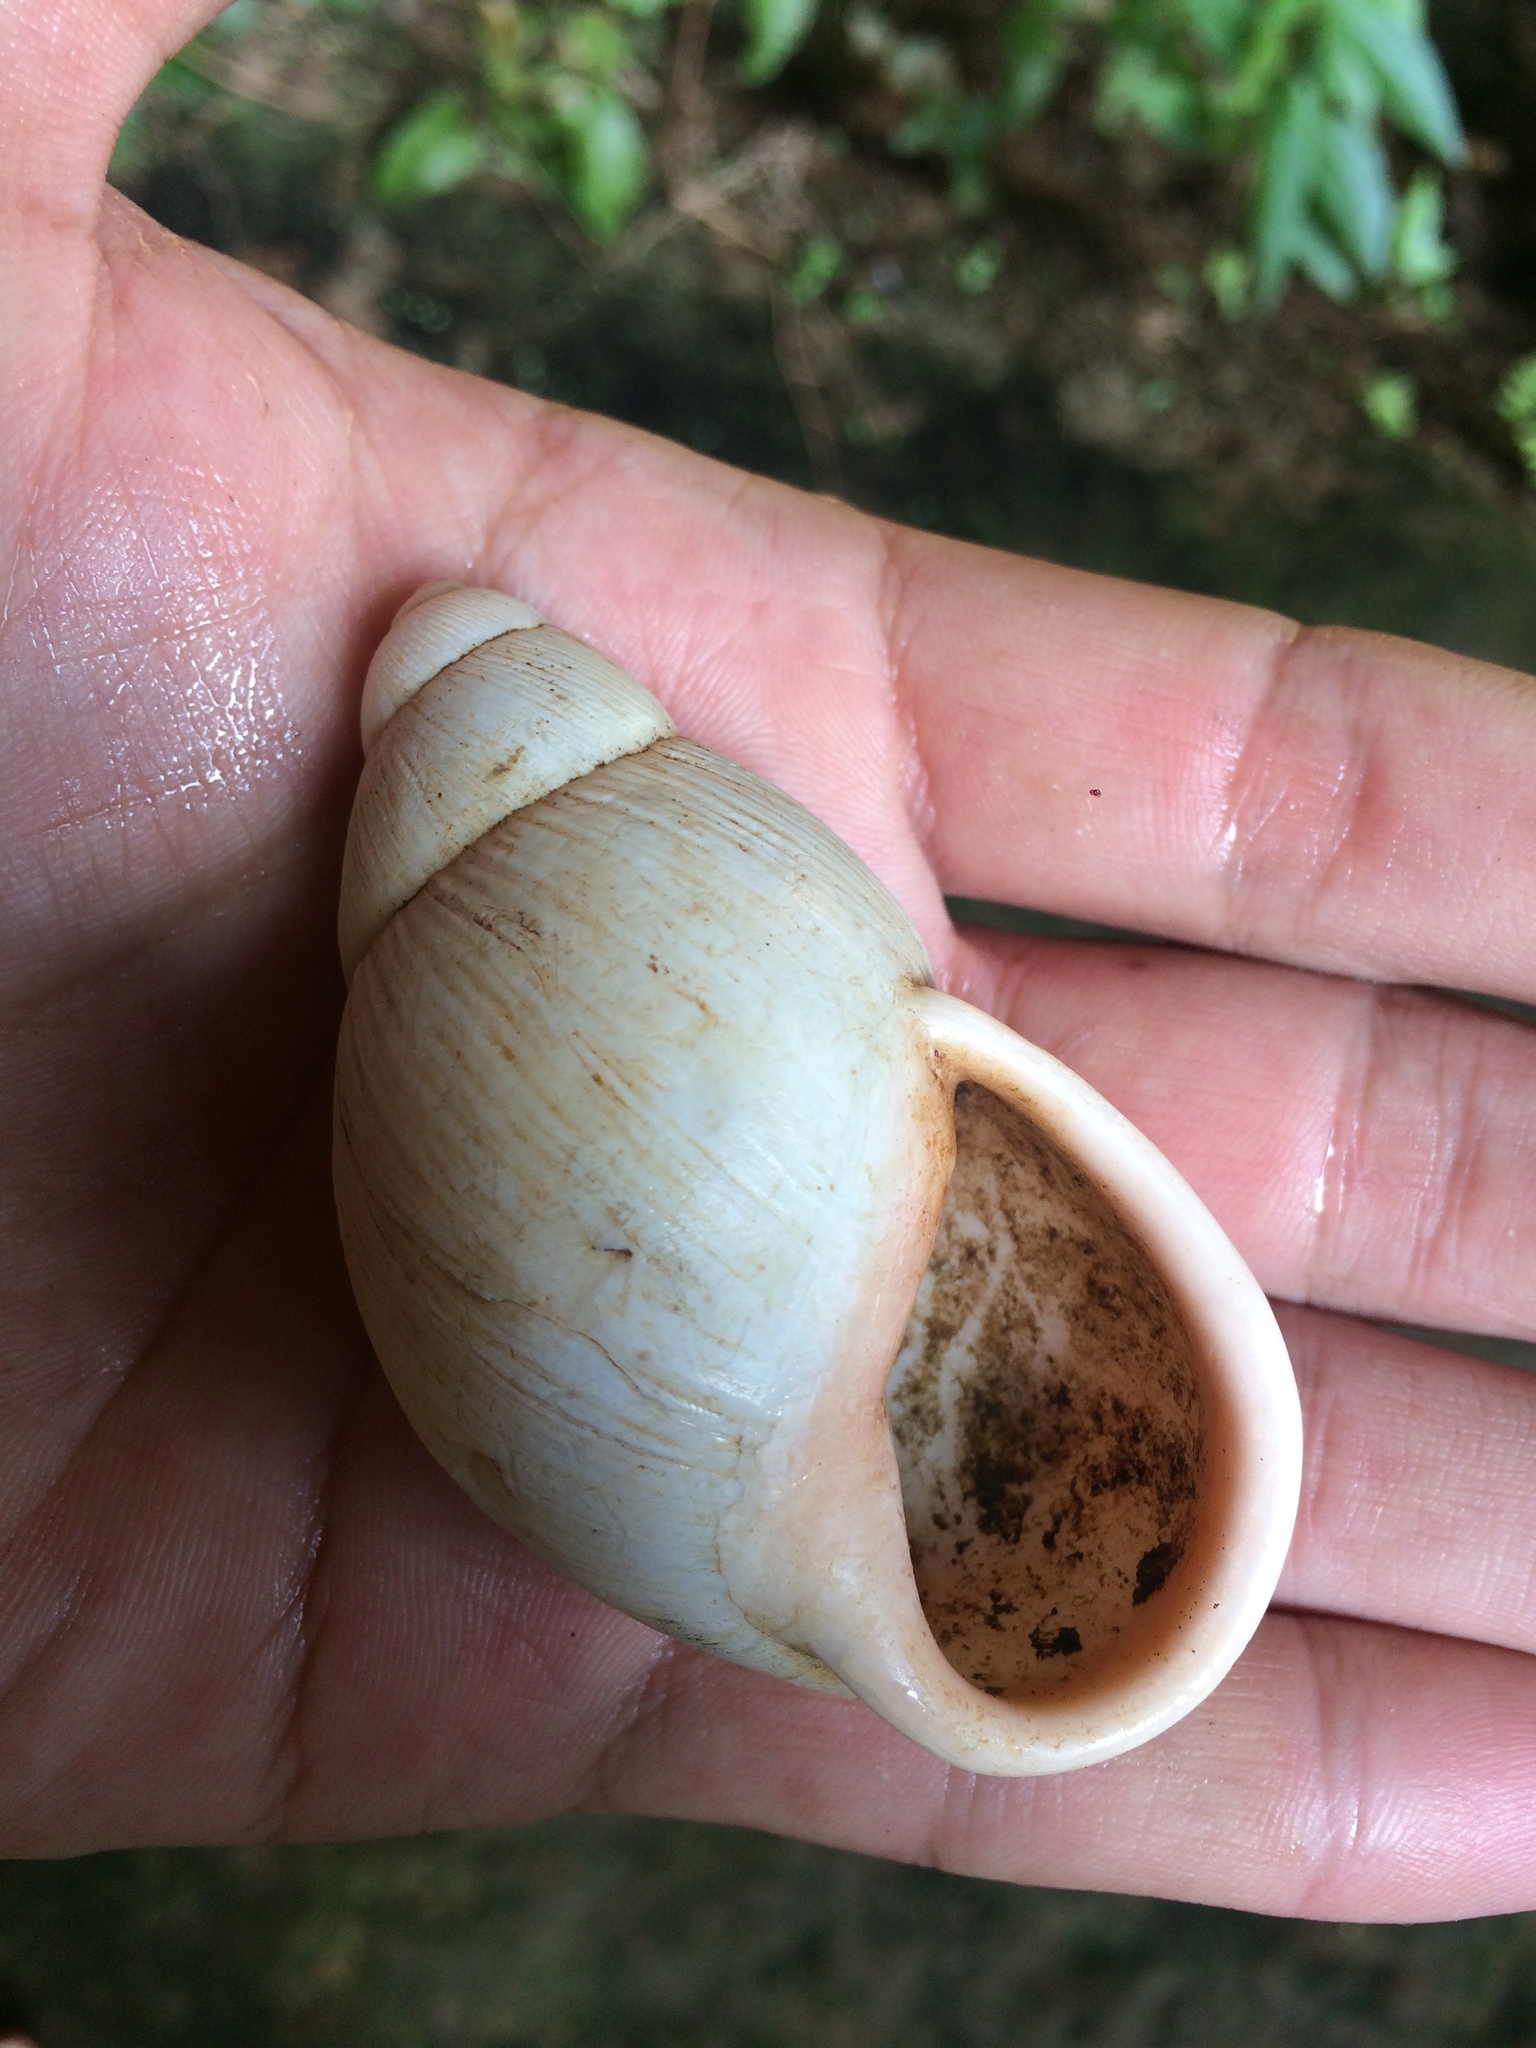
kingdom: Animalia
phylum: Mollusca
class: Gastropoda
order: Stylommatophora
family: Strophocheilidae
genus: Megalobulimus
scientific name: Megalobulimus conicus
